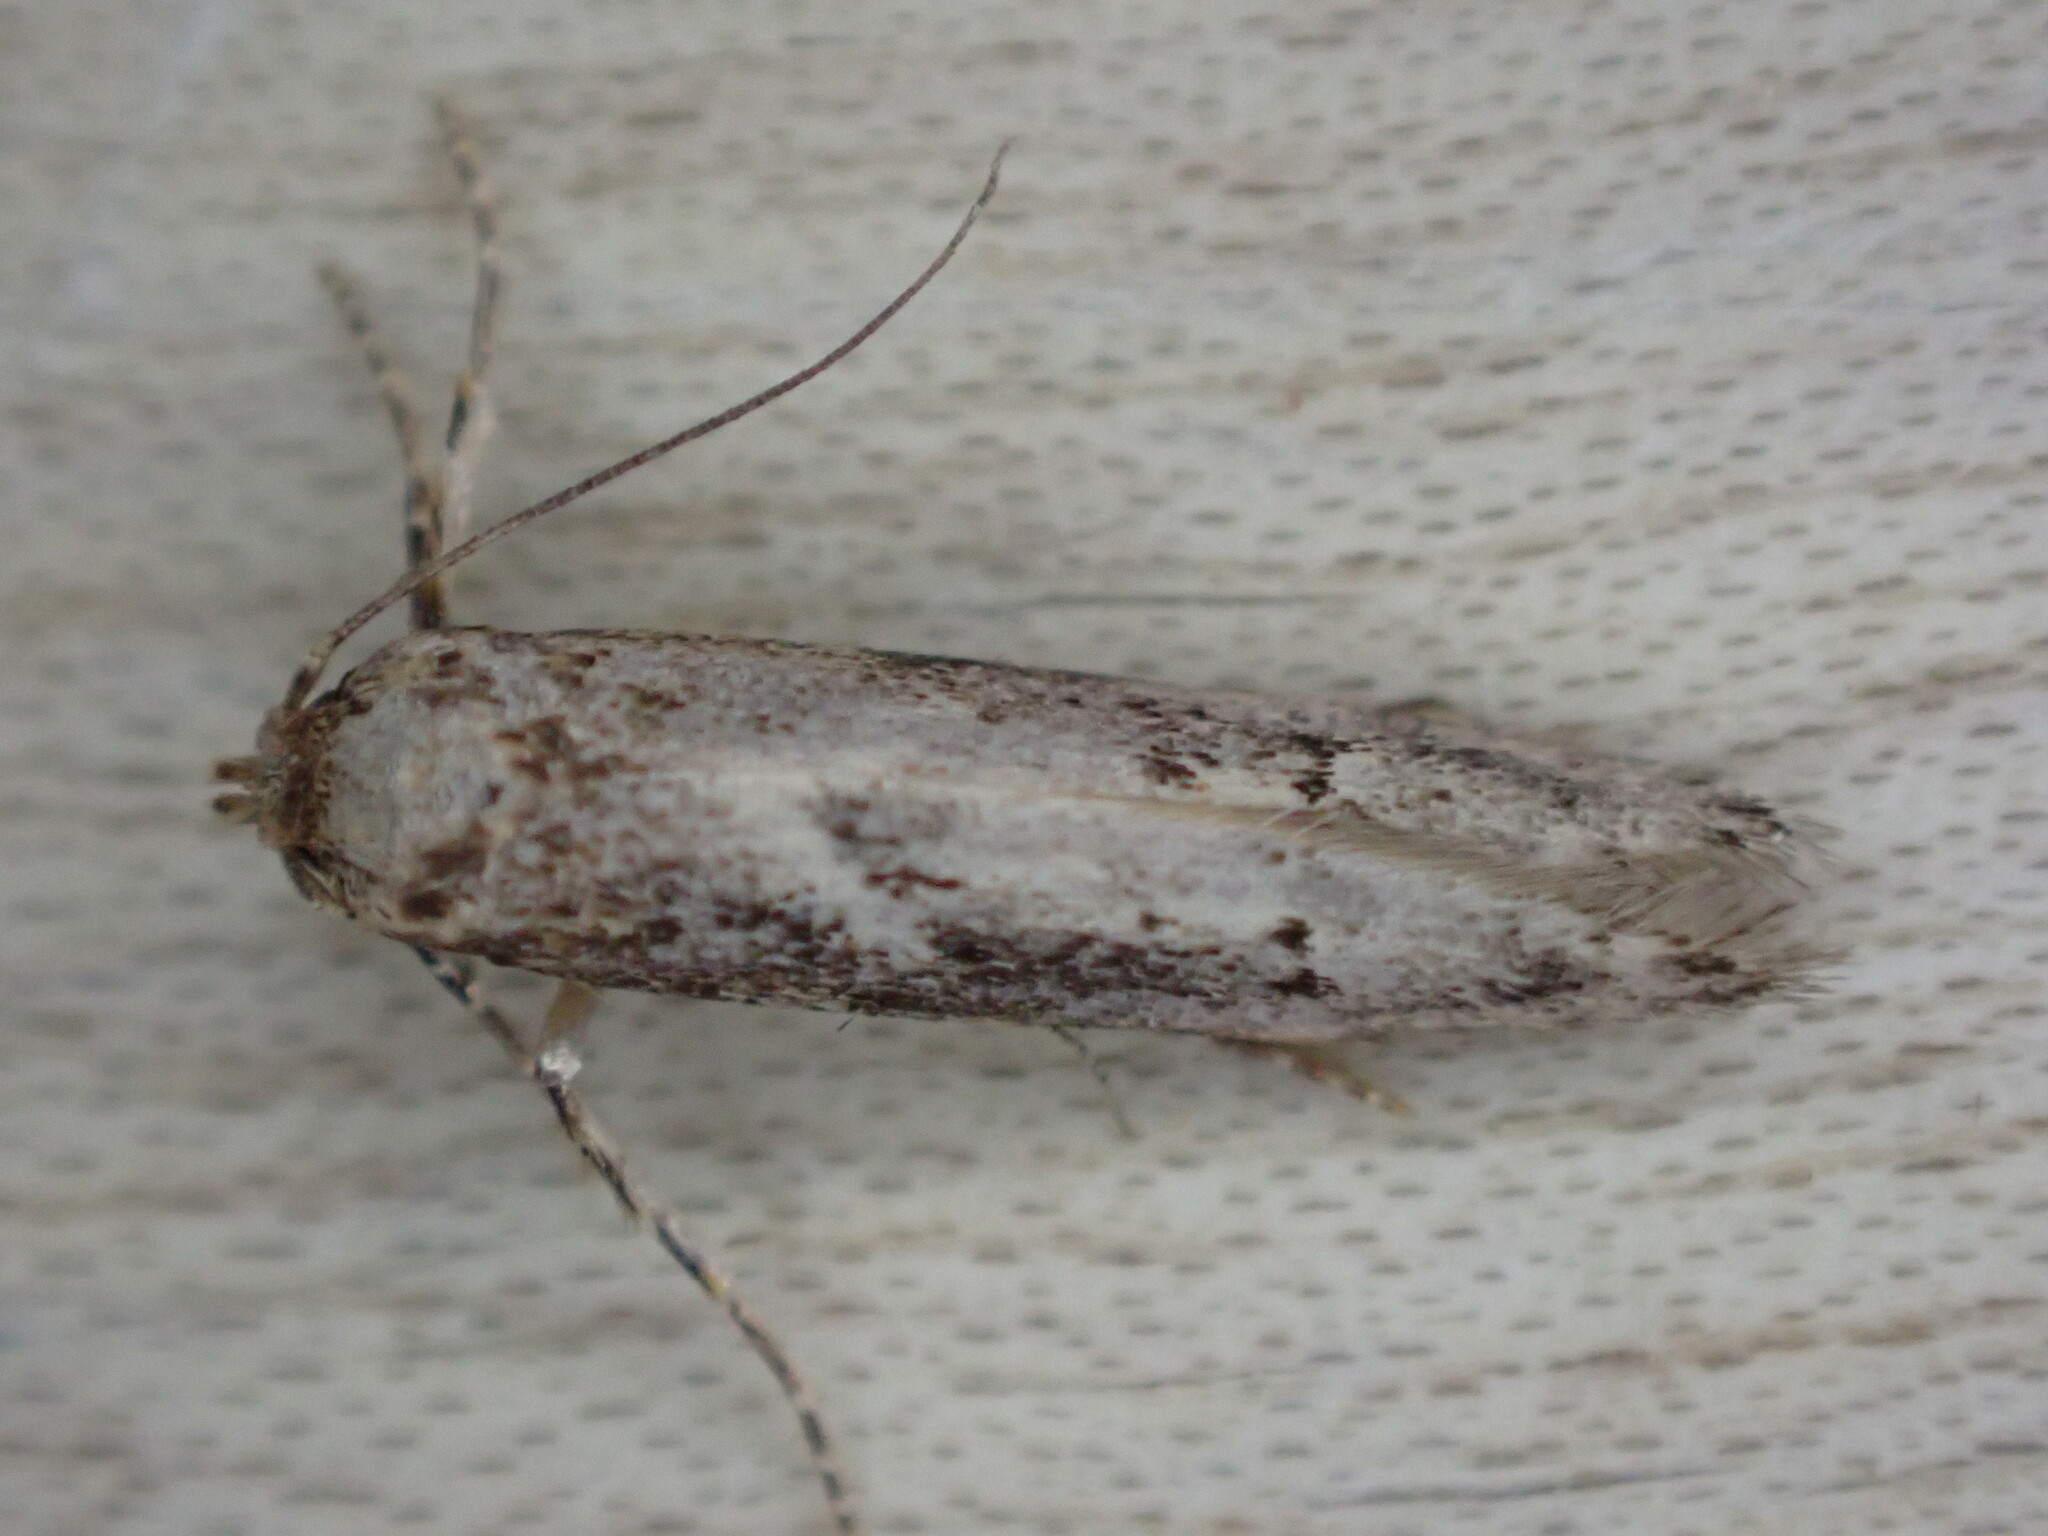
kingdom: Animalia
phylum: Arthropoda
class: Insecta
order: Lepidoptera
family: Blastobasidae
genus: Blastobasis
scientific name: Blastobasis adustella
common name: Dingy dowd
